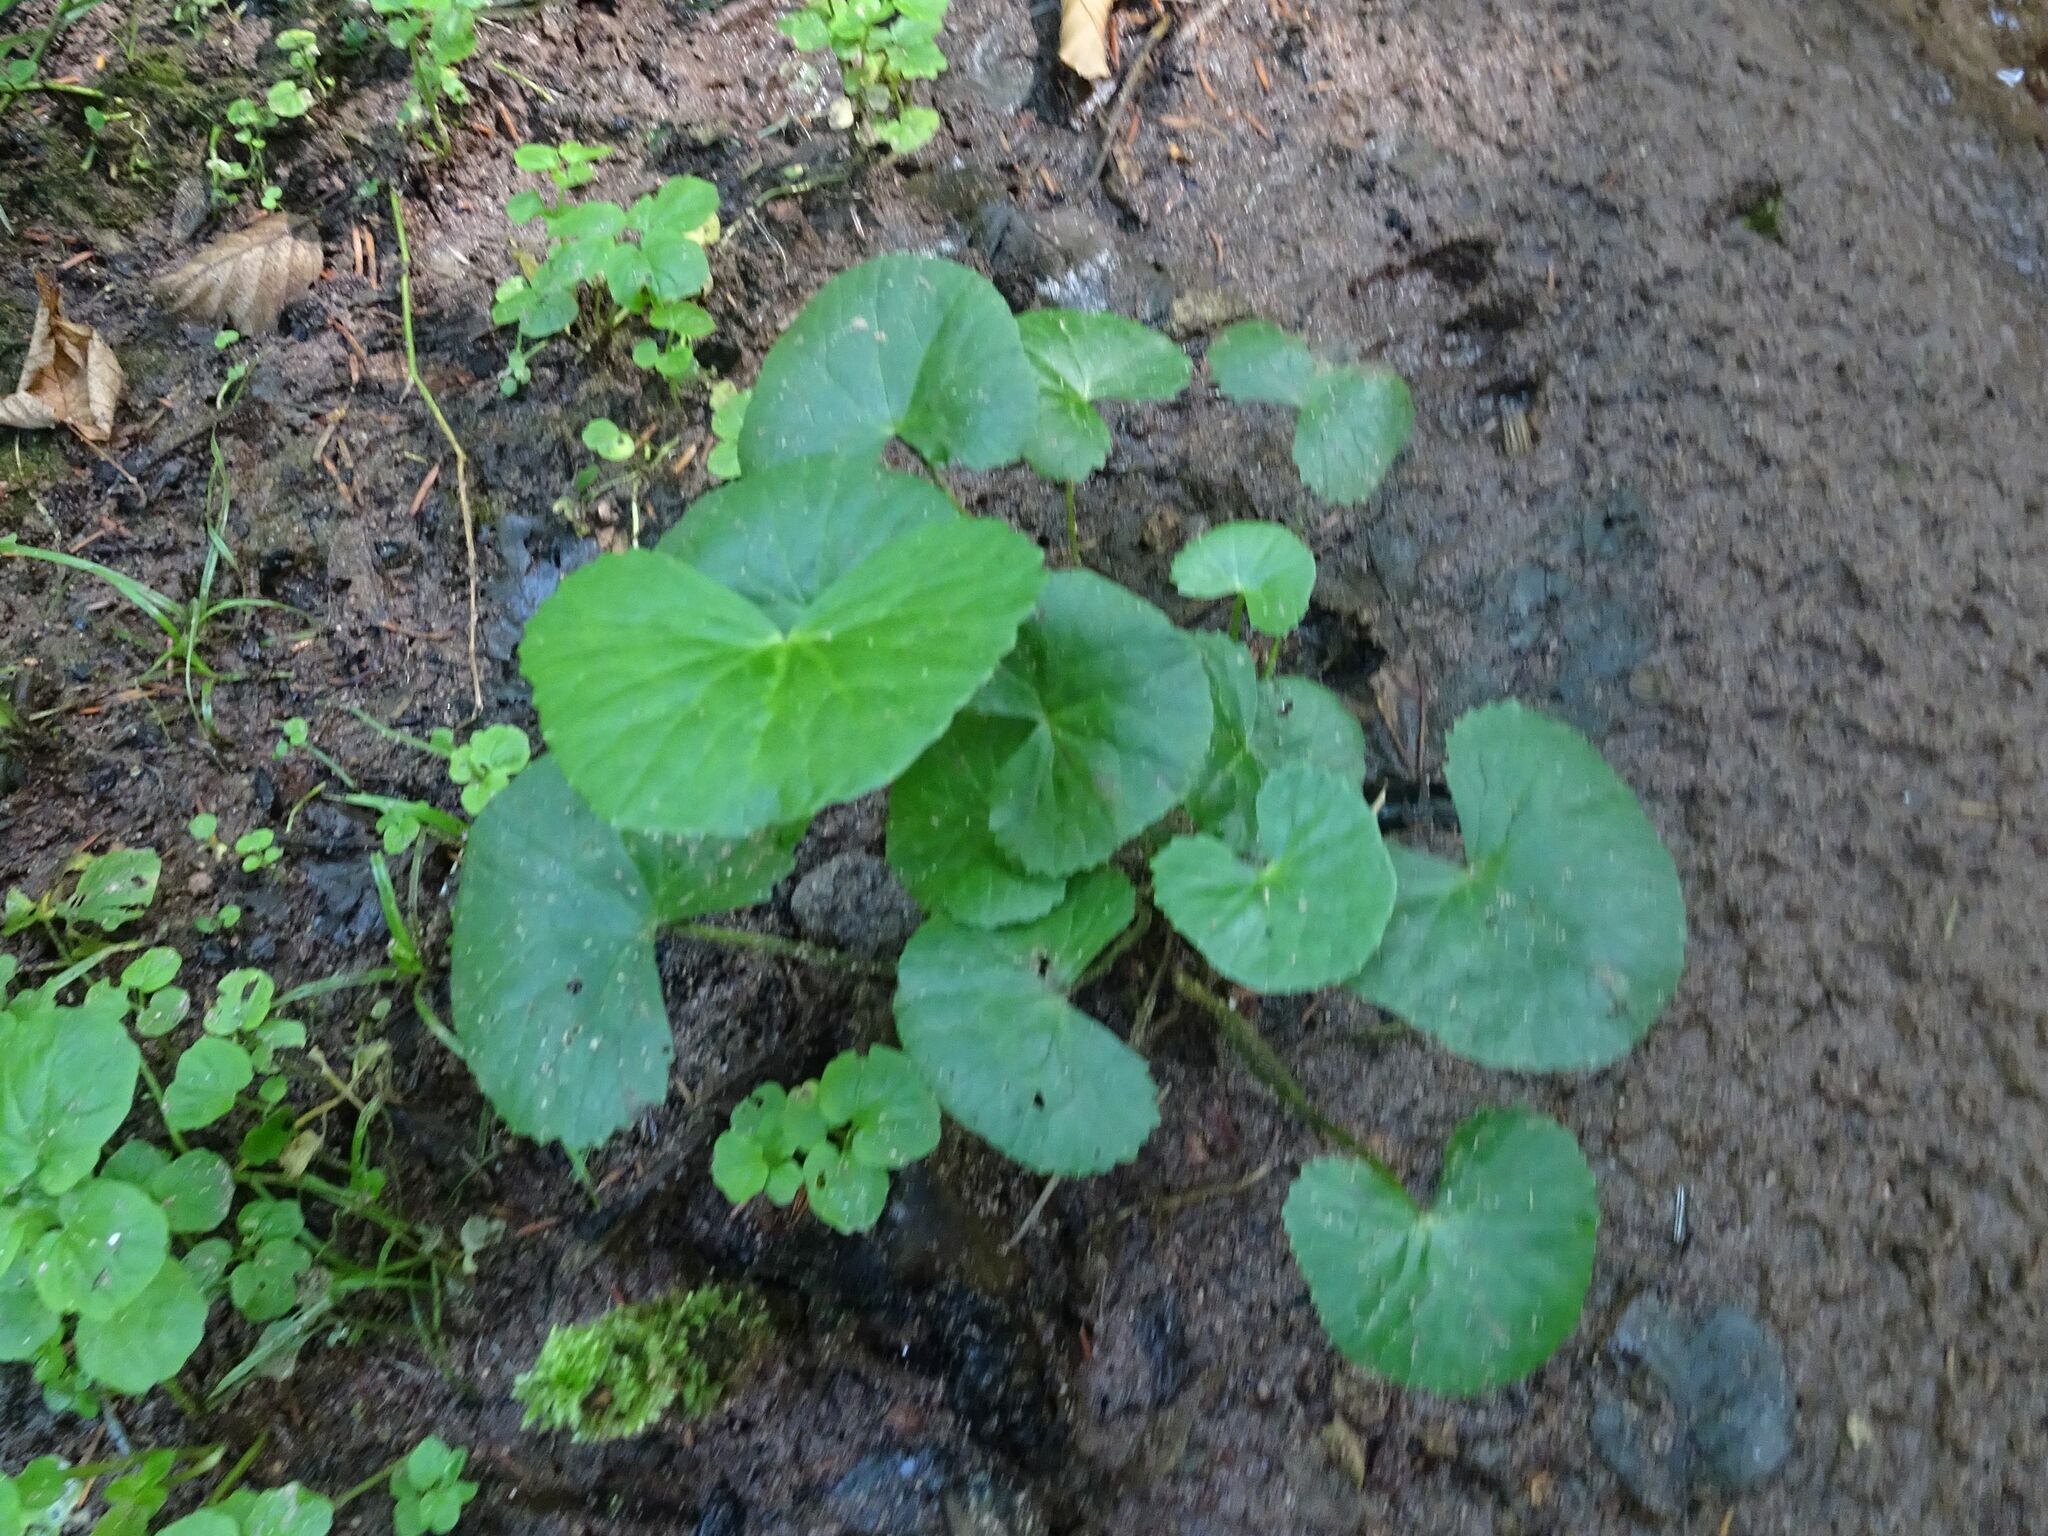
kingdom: Plantae
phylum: Tracheophyta
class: Magnoliopsida
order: Ranunculales
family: Ranunculaceae
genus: Caltha
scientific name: Caltha palustris
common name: Marsh marigold
